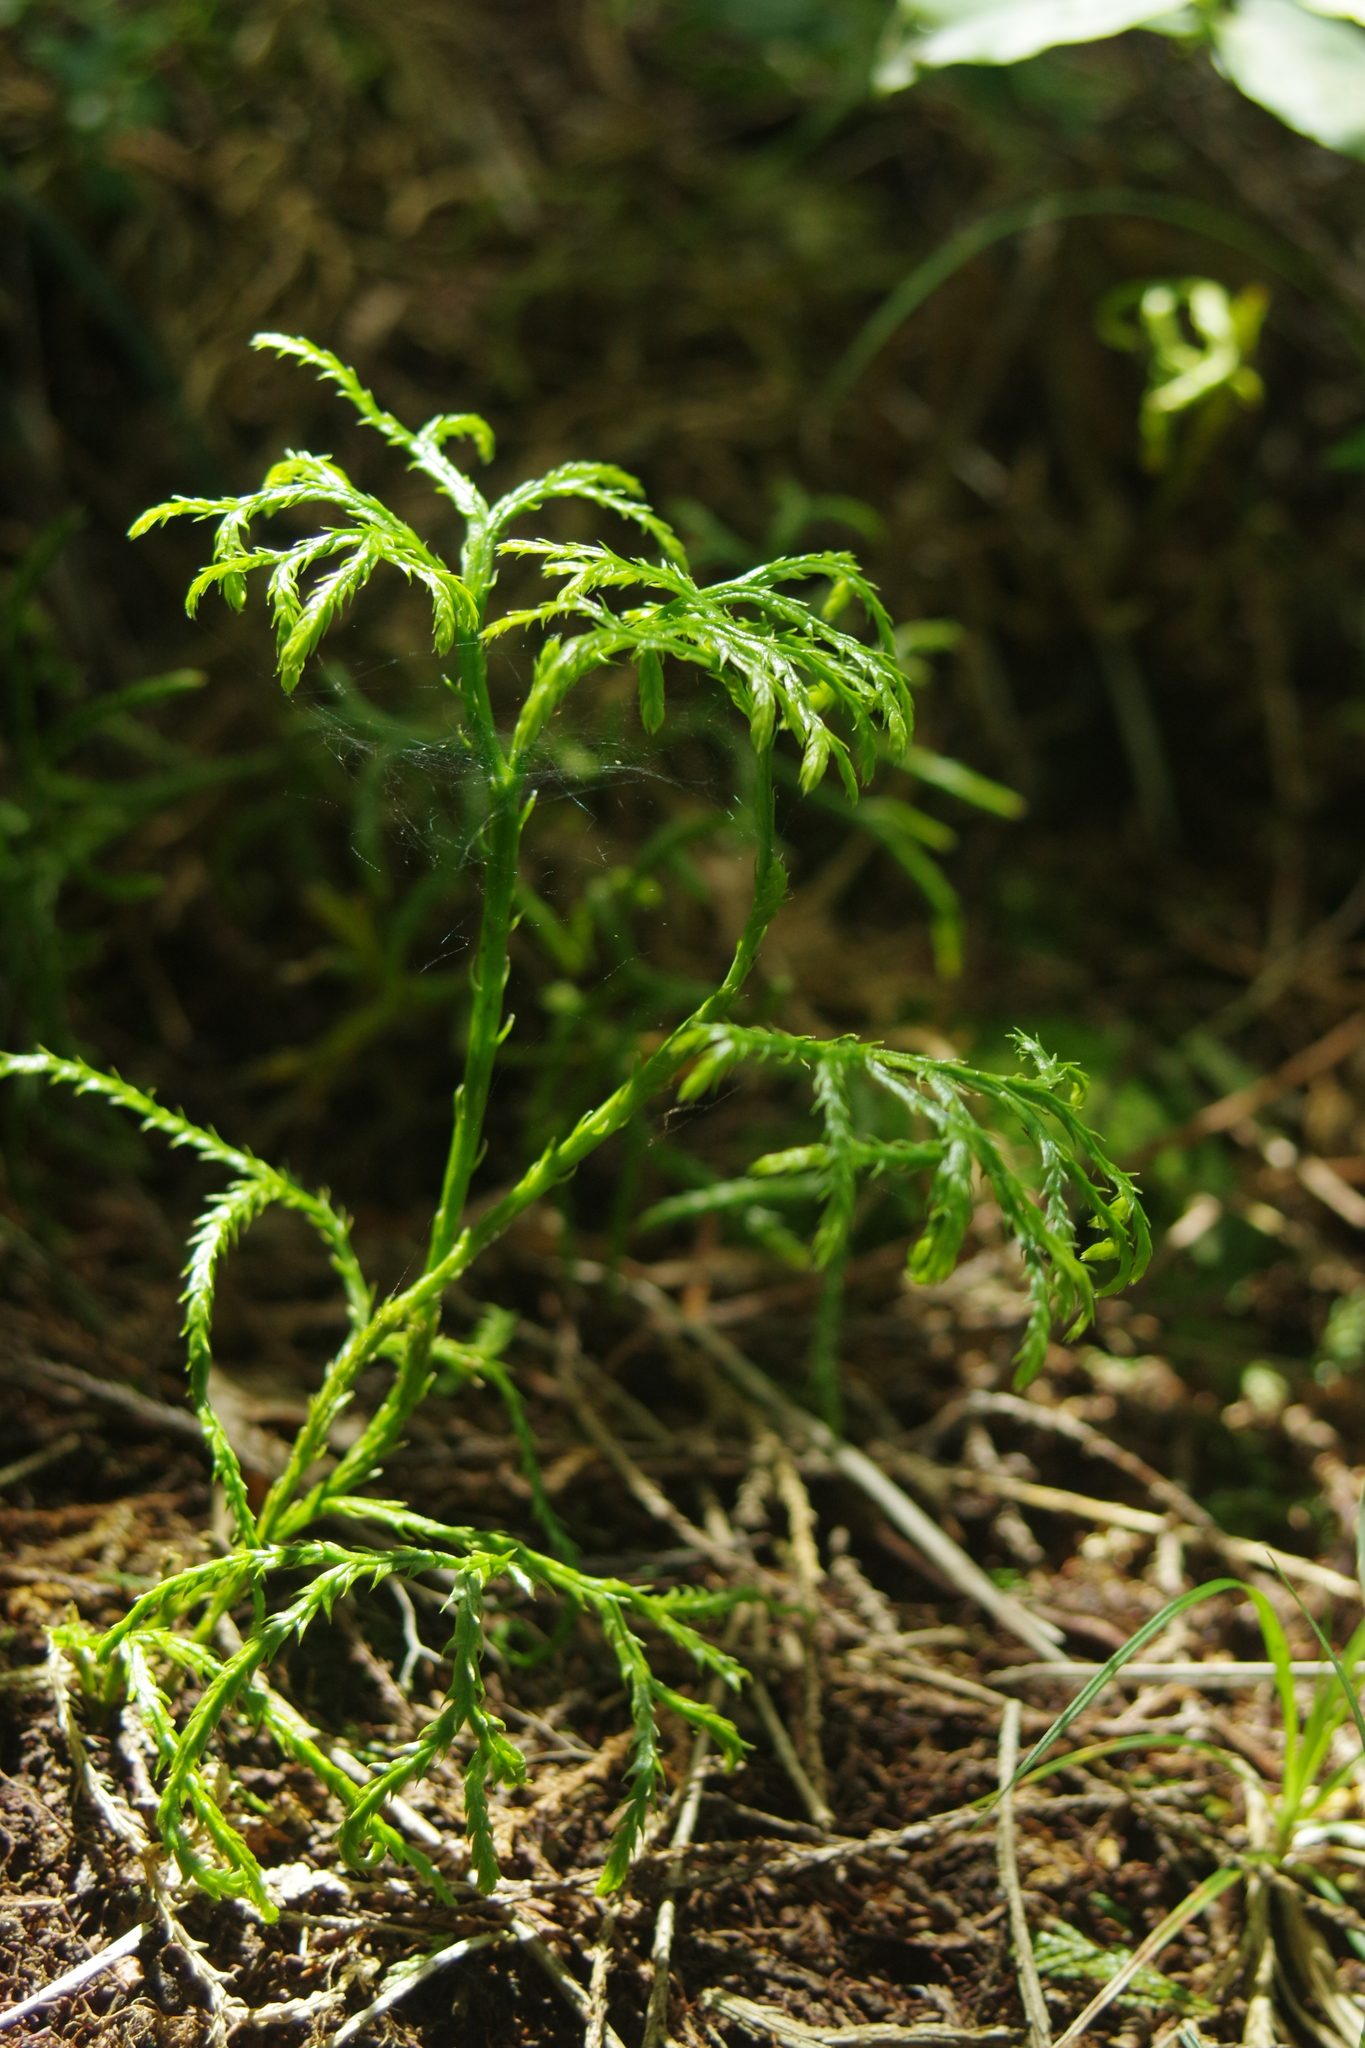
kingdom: Plantae
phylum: Tracheophyta
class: Lycopodiopsida
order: Lycopodiales
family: Lycopodiaceae
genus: Diphasiastrum
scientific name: Diphasiastrum multispicatum
